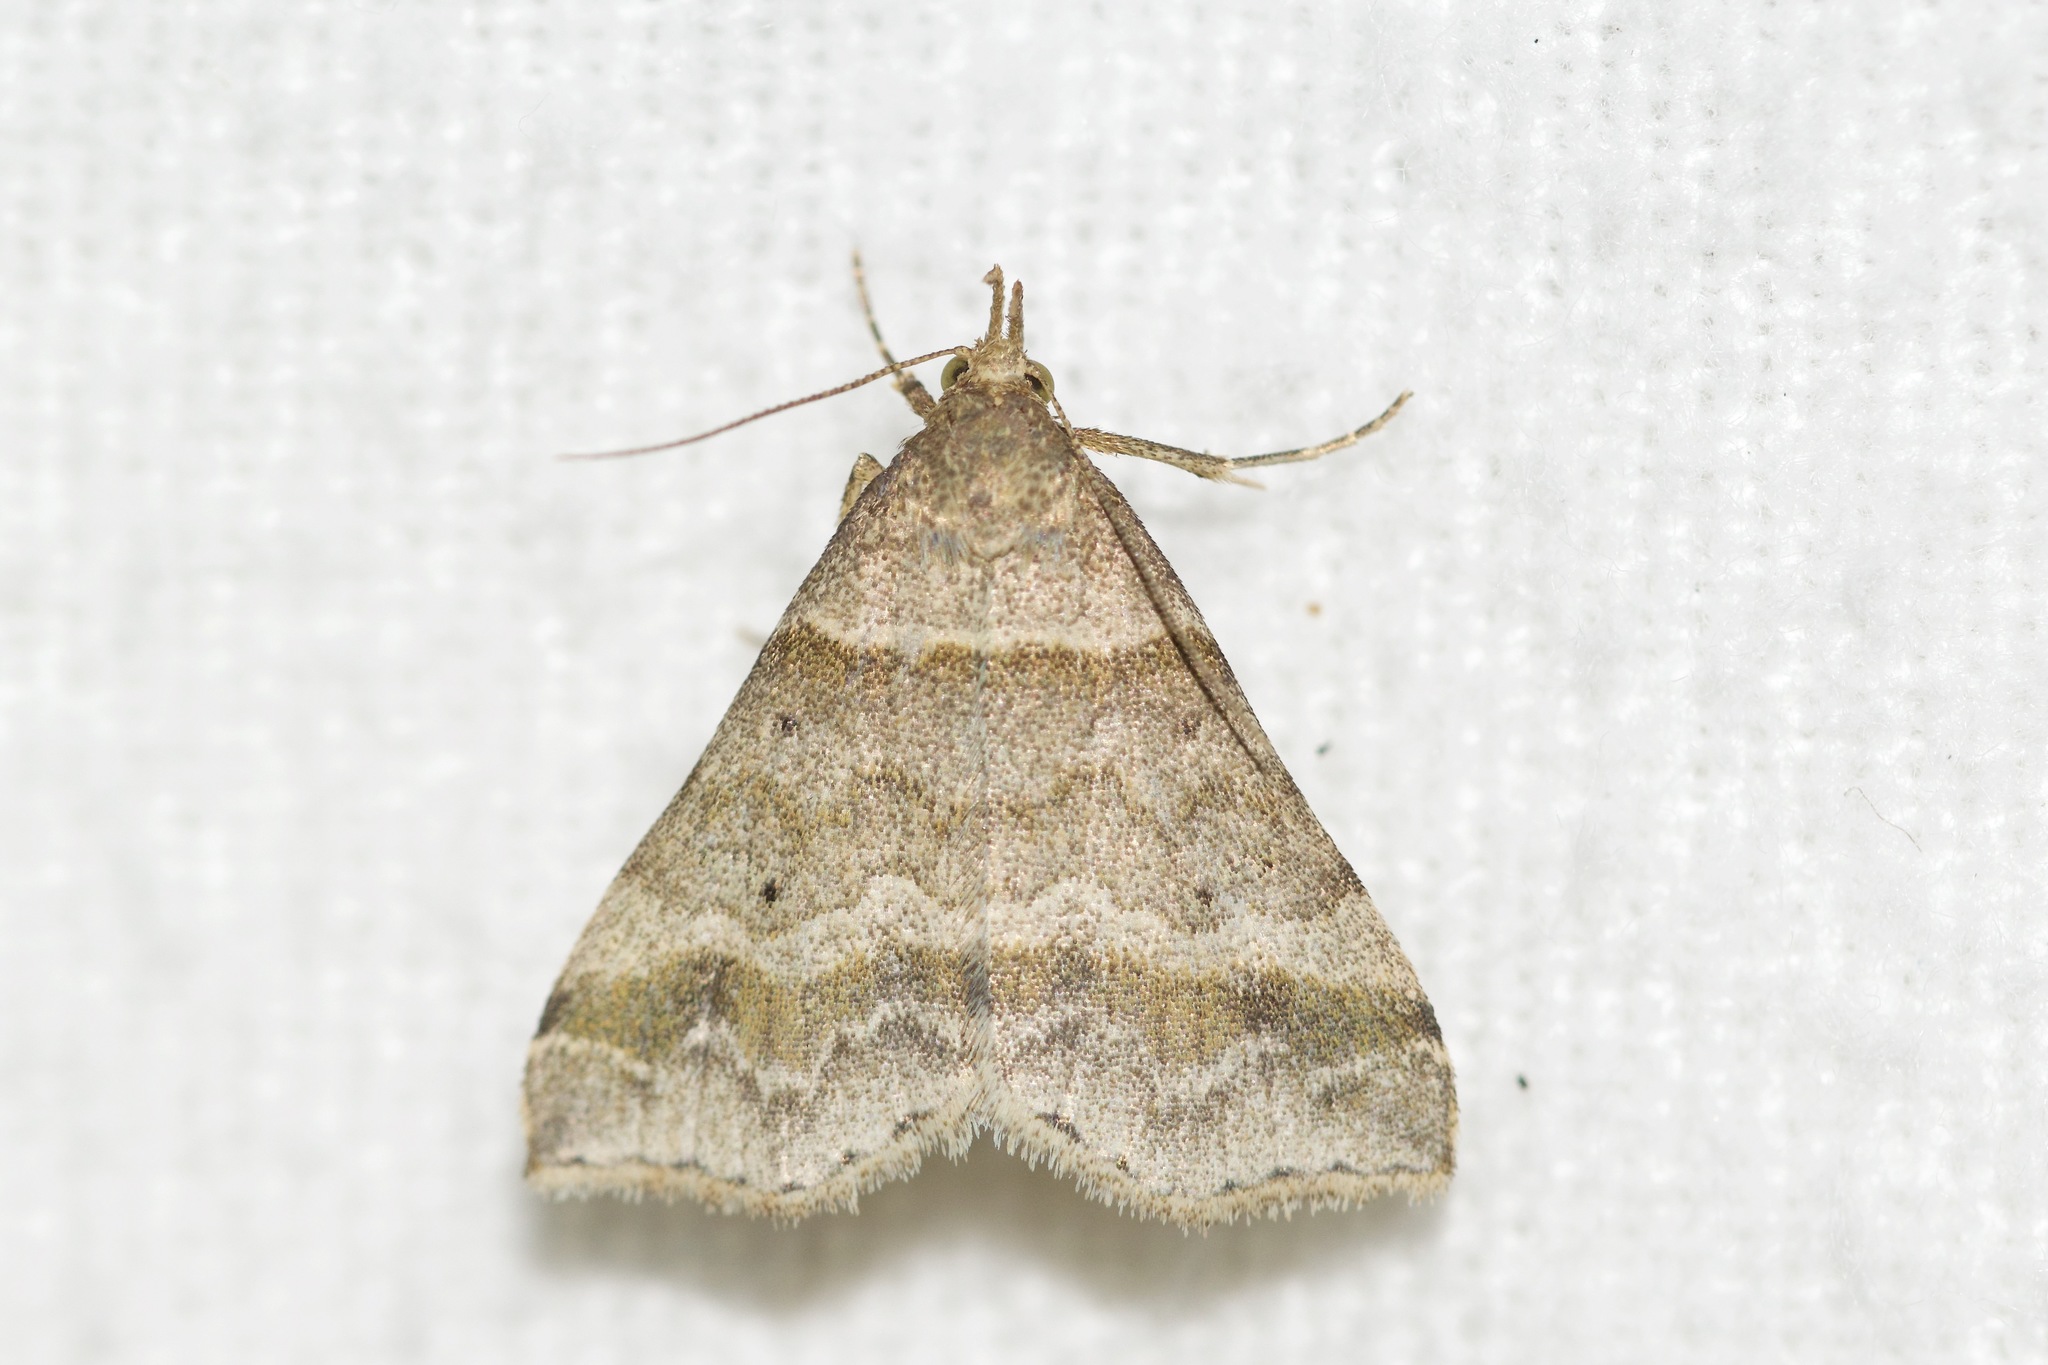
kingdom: Animalia
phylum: Arthropoda
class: Insecta
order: Lepidoptera
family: Erebidae
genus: Phaeolita
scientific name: Phaeolita pyramusalis
